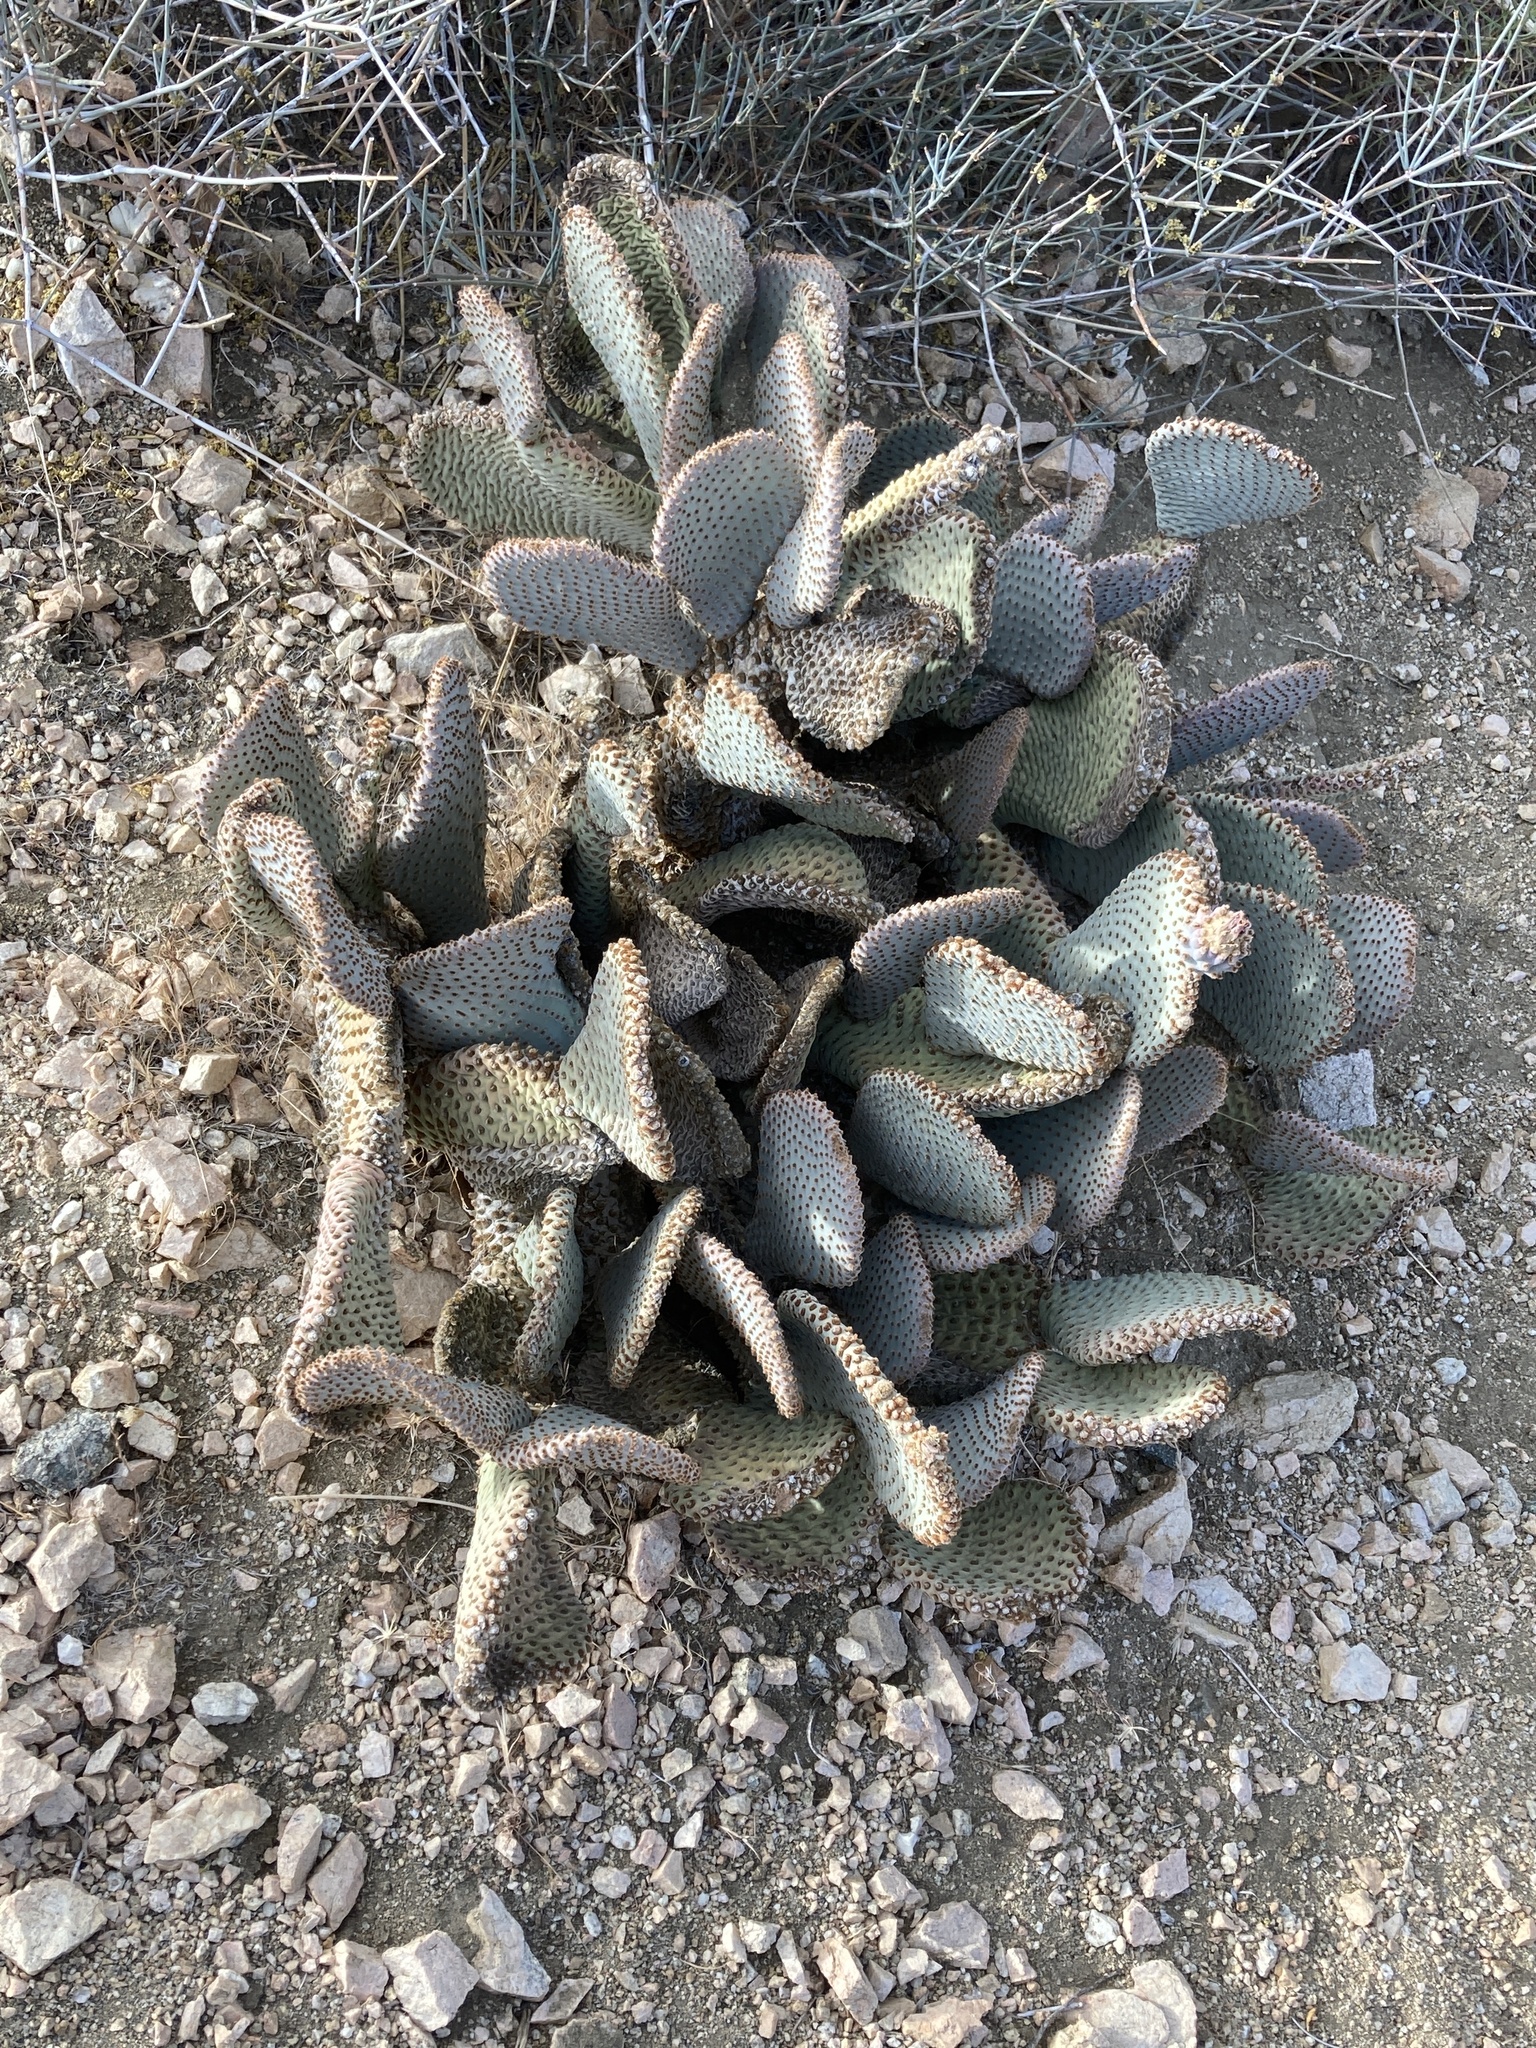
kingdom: Plantae
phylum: Tracheophyta
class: Magnoliopsida
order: Caryophyllales
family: Cactaceae
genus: Opuntia
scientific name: Opuntia basilaris
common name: Beavertail prickly-pear
